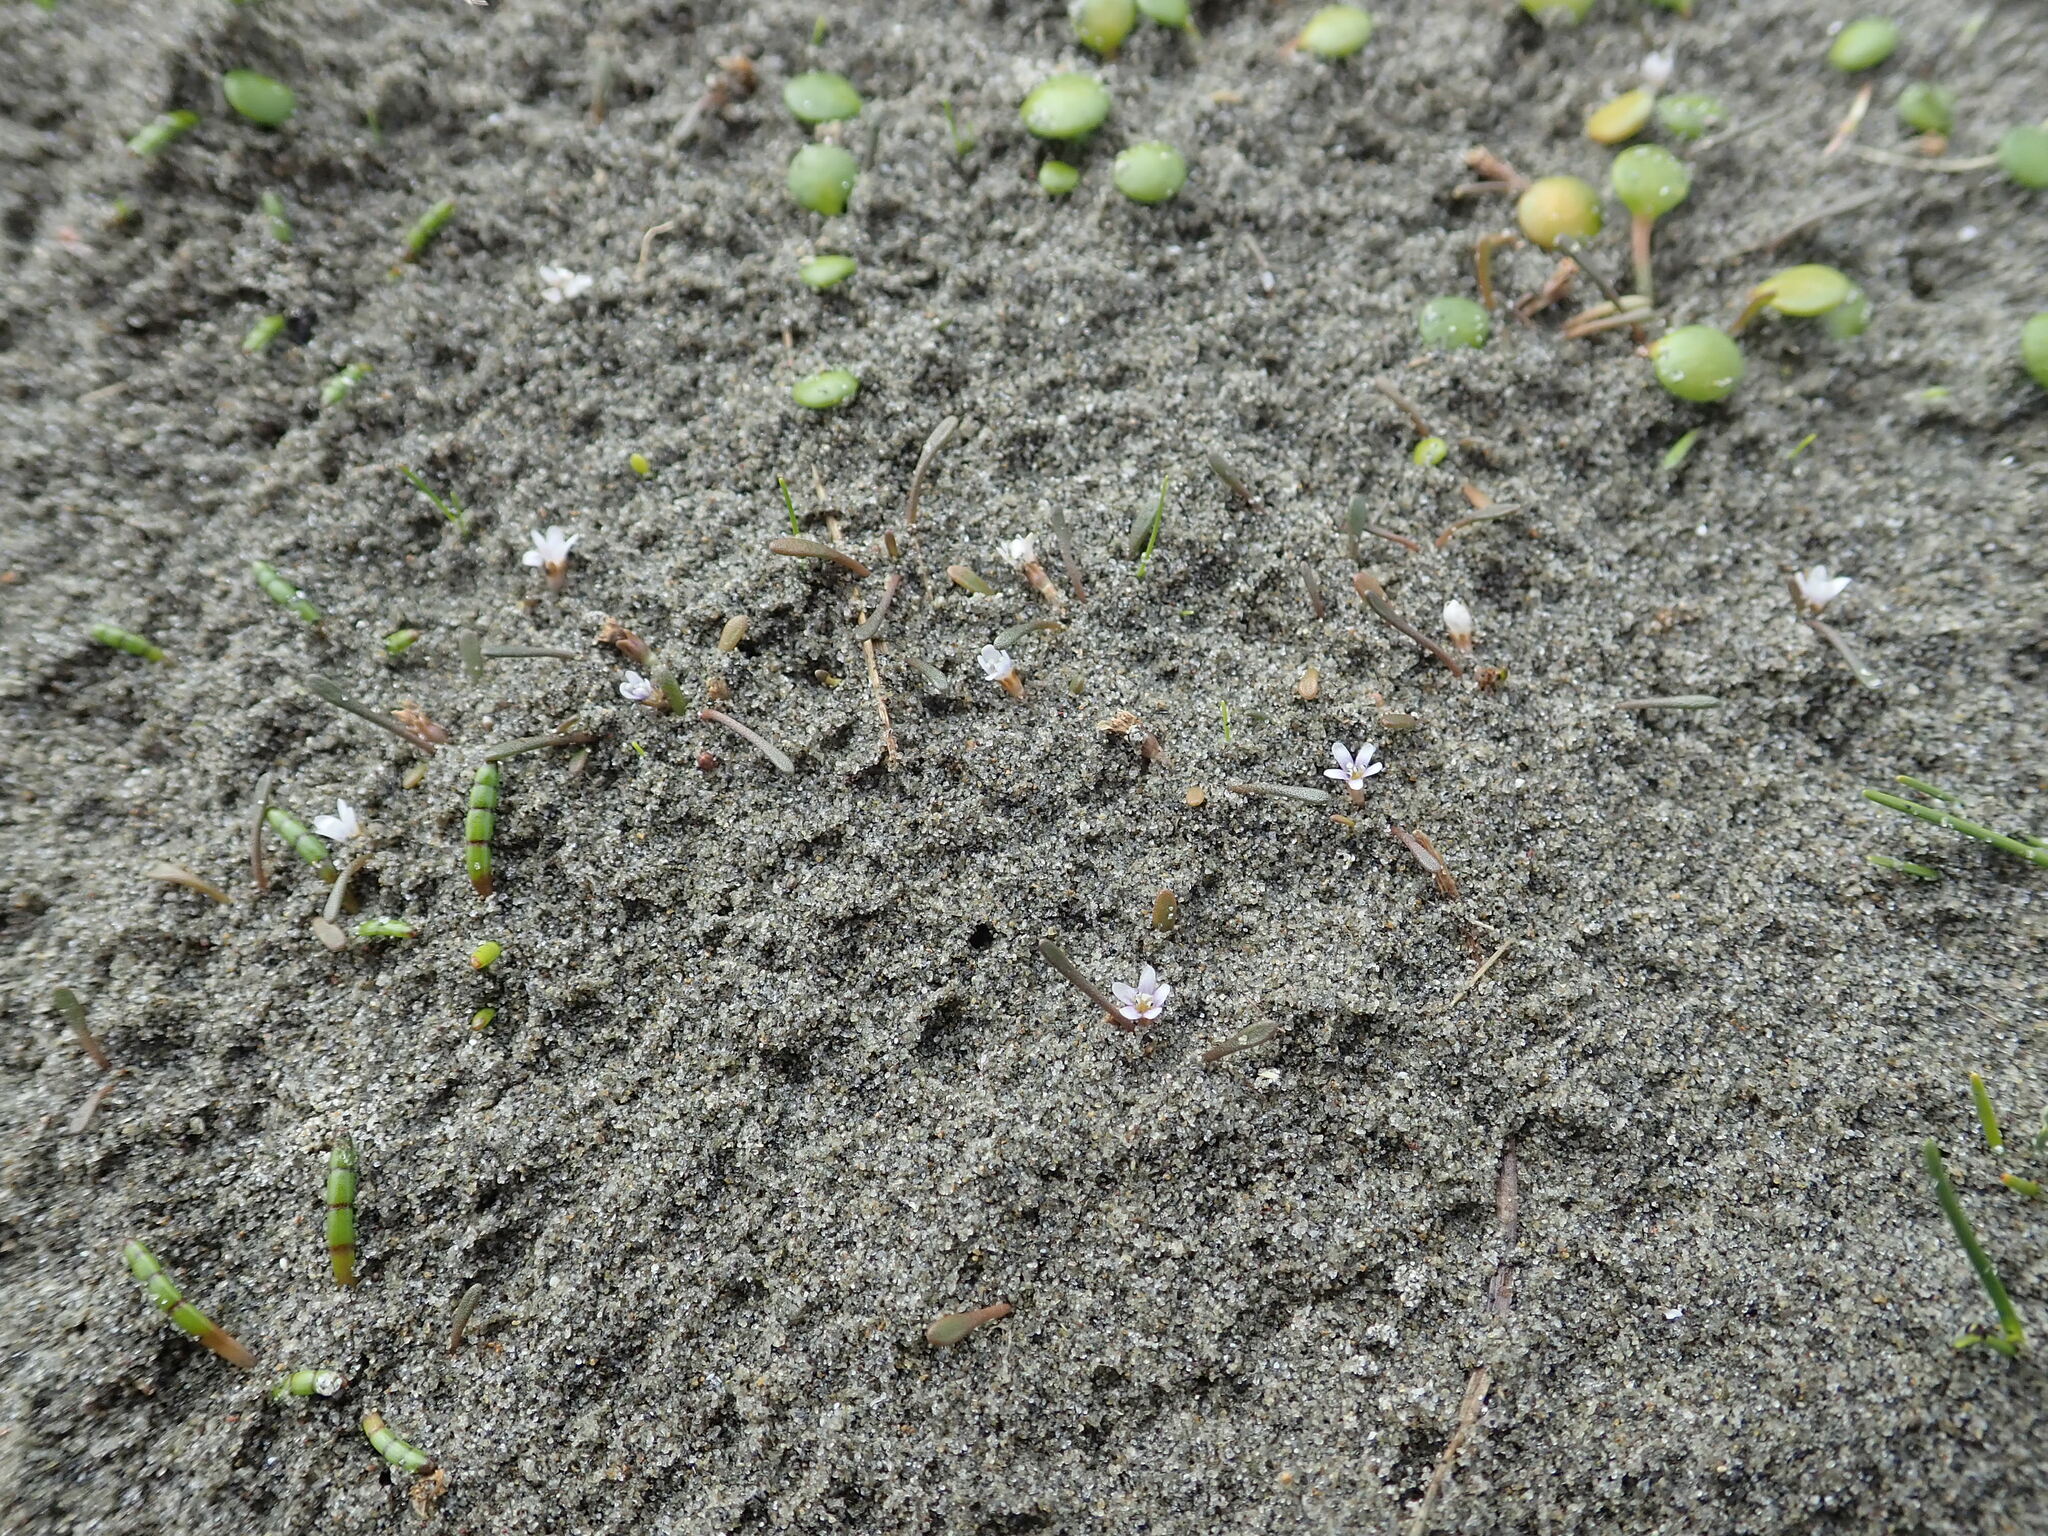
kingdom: Plantae
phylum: Tracheophyta
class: Magnoliopsida
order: Lamiales
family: Scrophulariaceae
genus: Limosella
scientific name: Limosella australis
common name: Welsh mudwort
